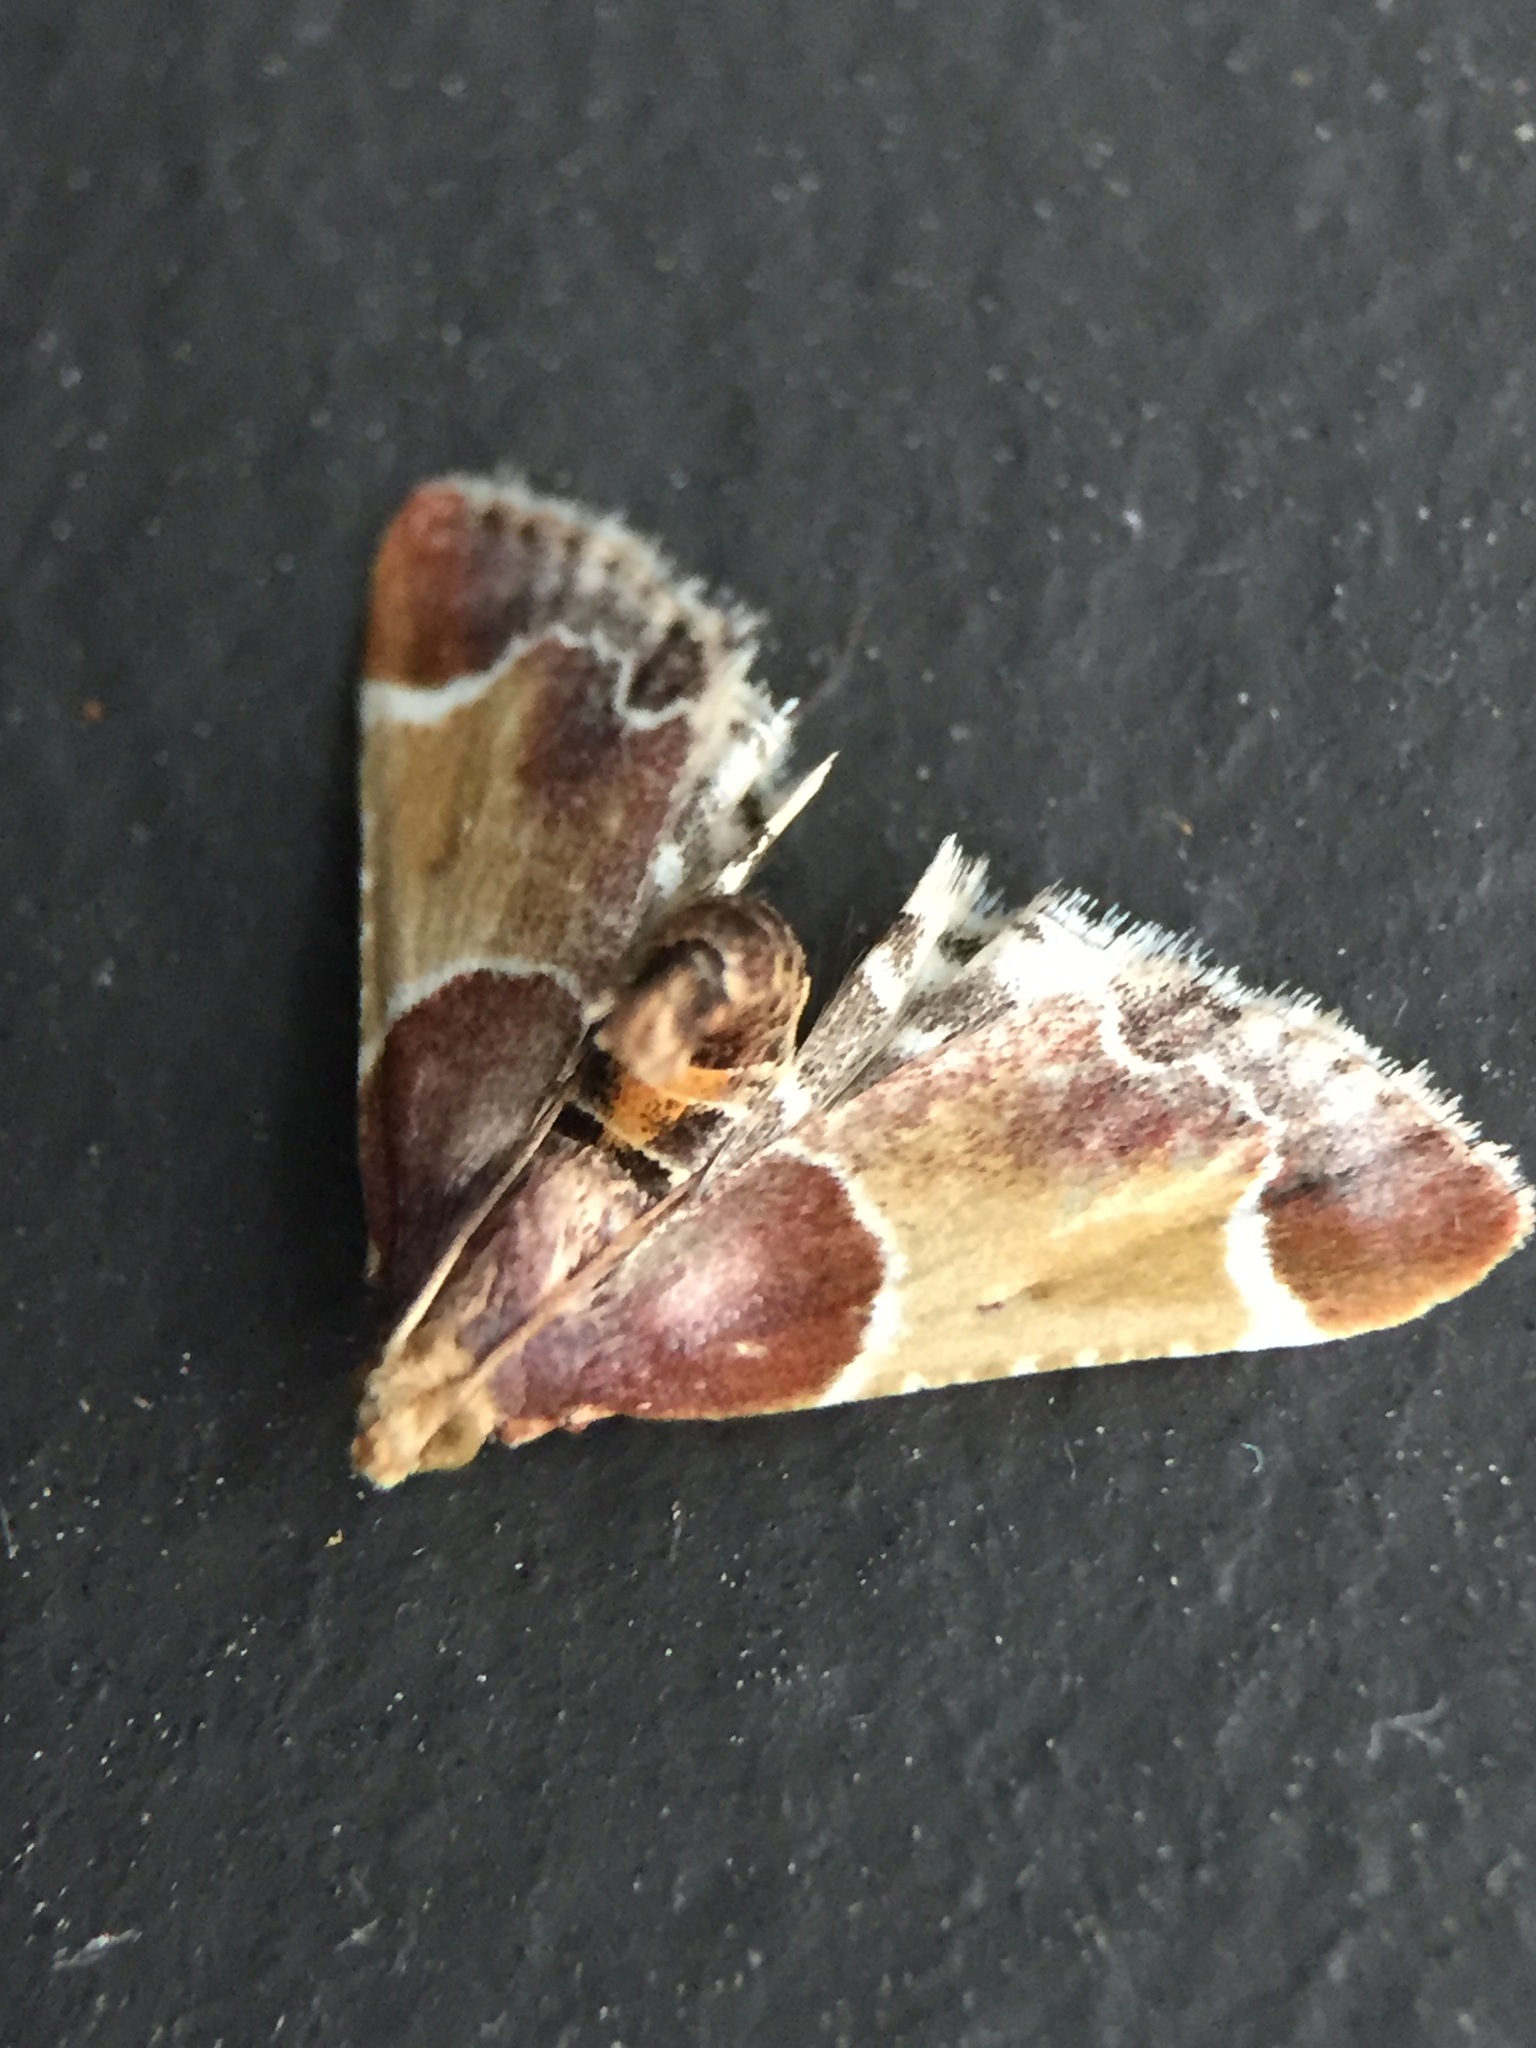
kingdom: Animalia
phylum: Arthropoda
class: Insecta
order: Lepidoptera
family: Pyralidae
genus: Pyralis
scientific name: Pyralis farinalis
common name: Meal moth
